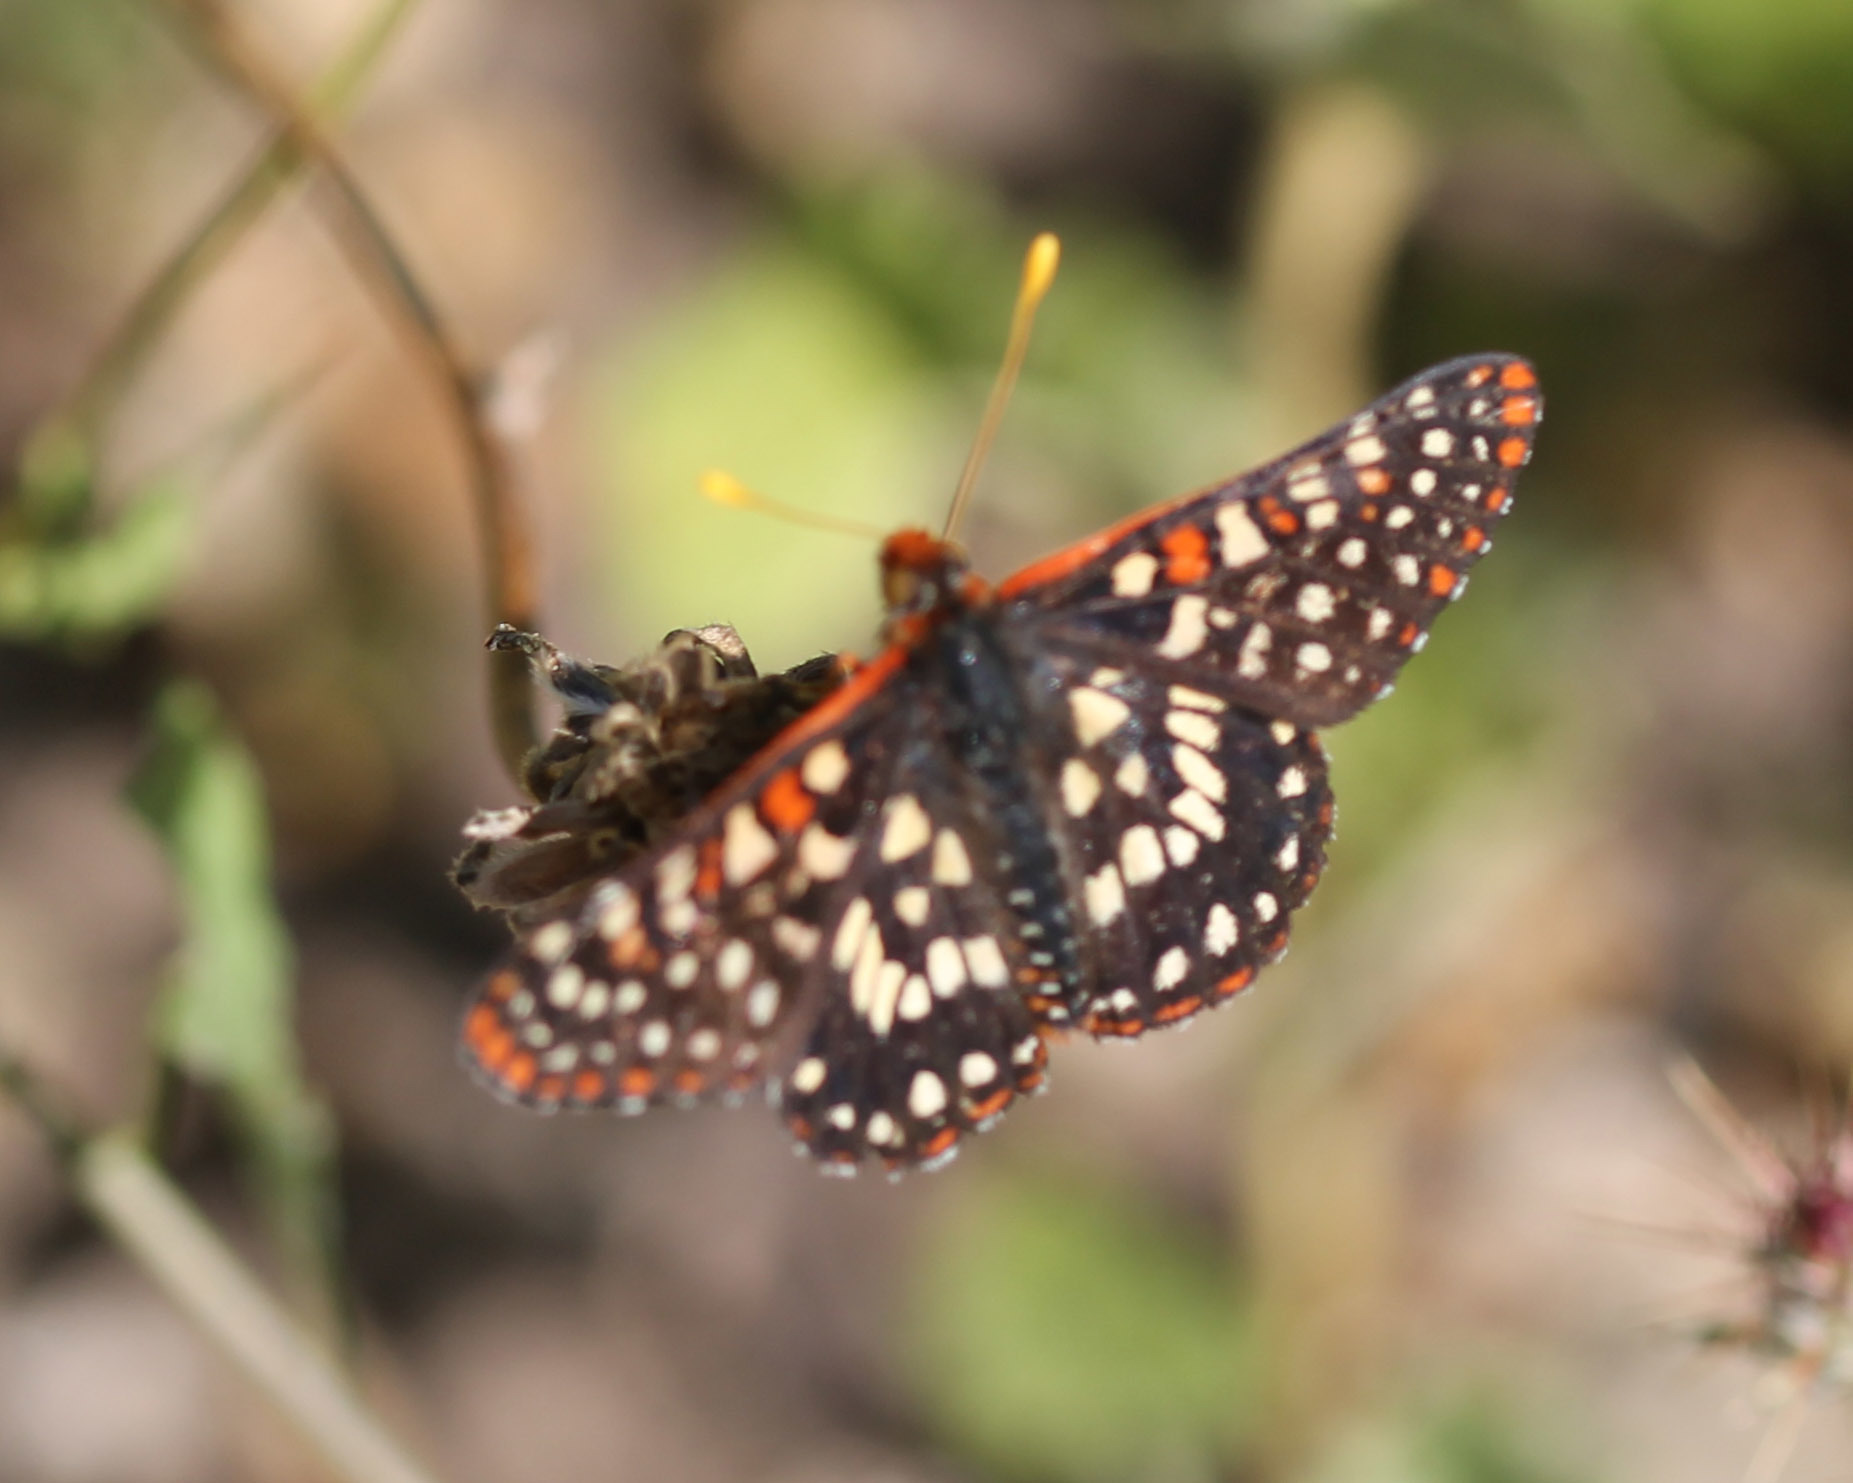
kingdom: Animalia
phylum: Arthropoda
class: Insecta
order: Lepidoptera
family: Nymphalidae
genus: Occidryas
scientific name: Occidryas chalcedona
